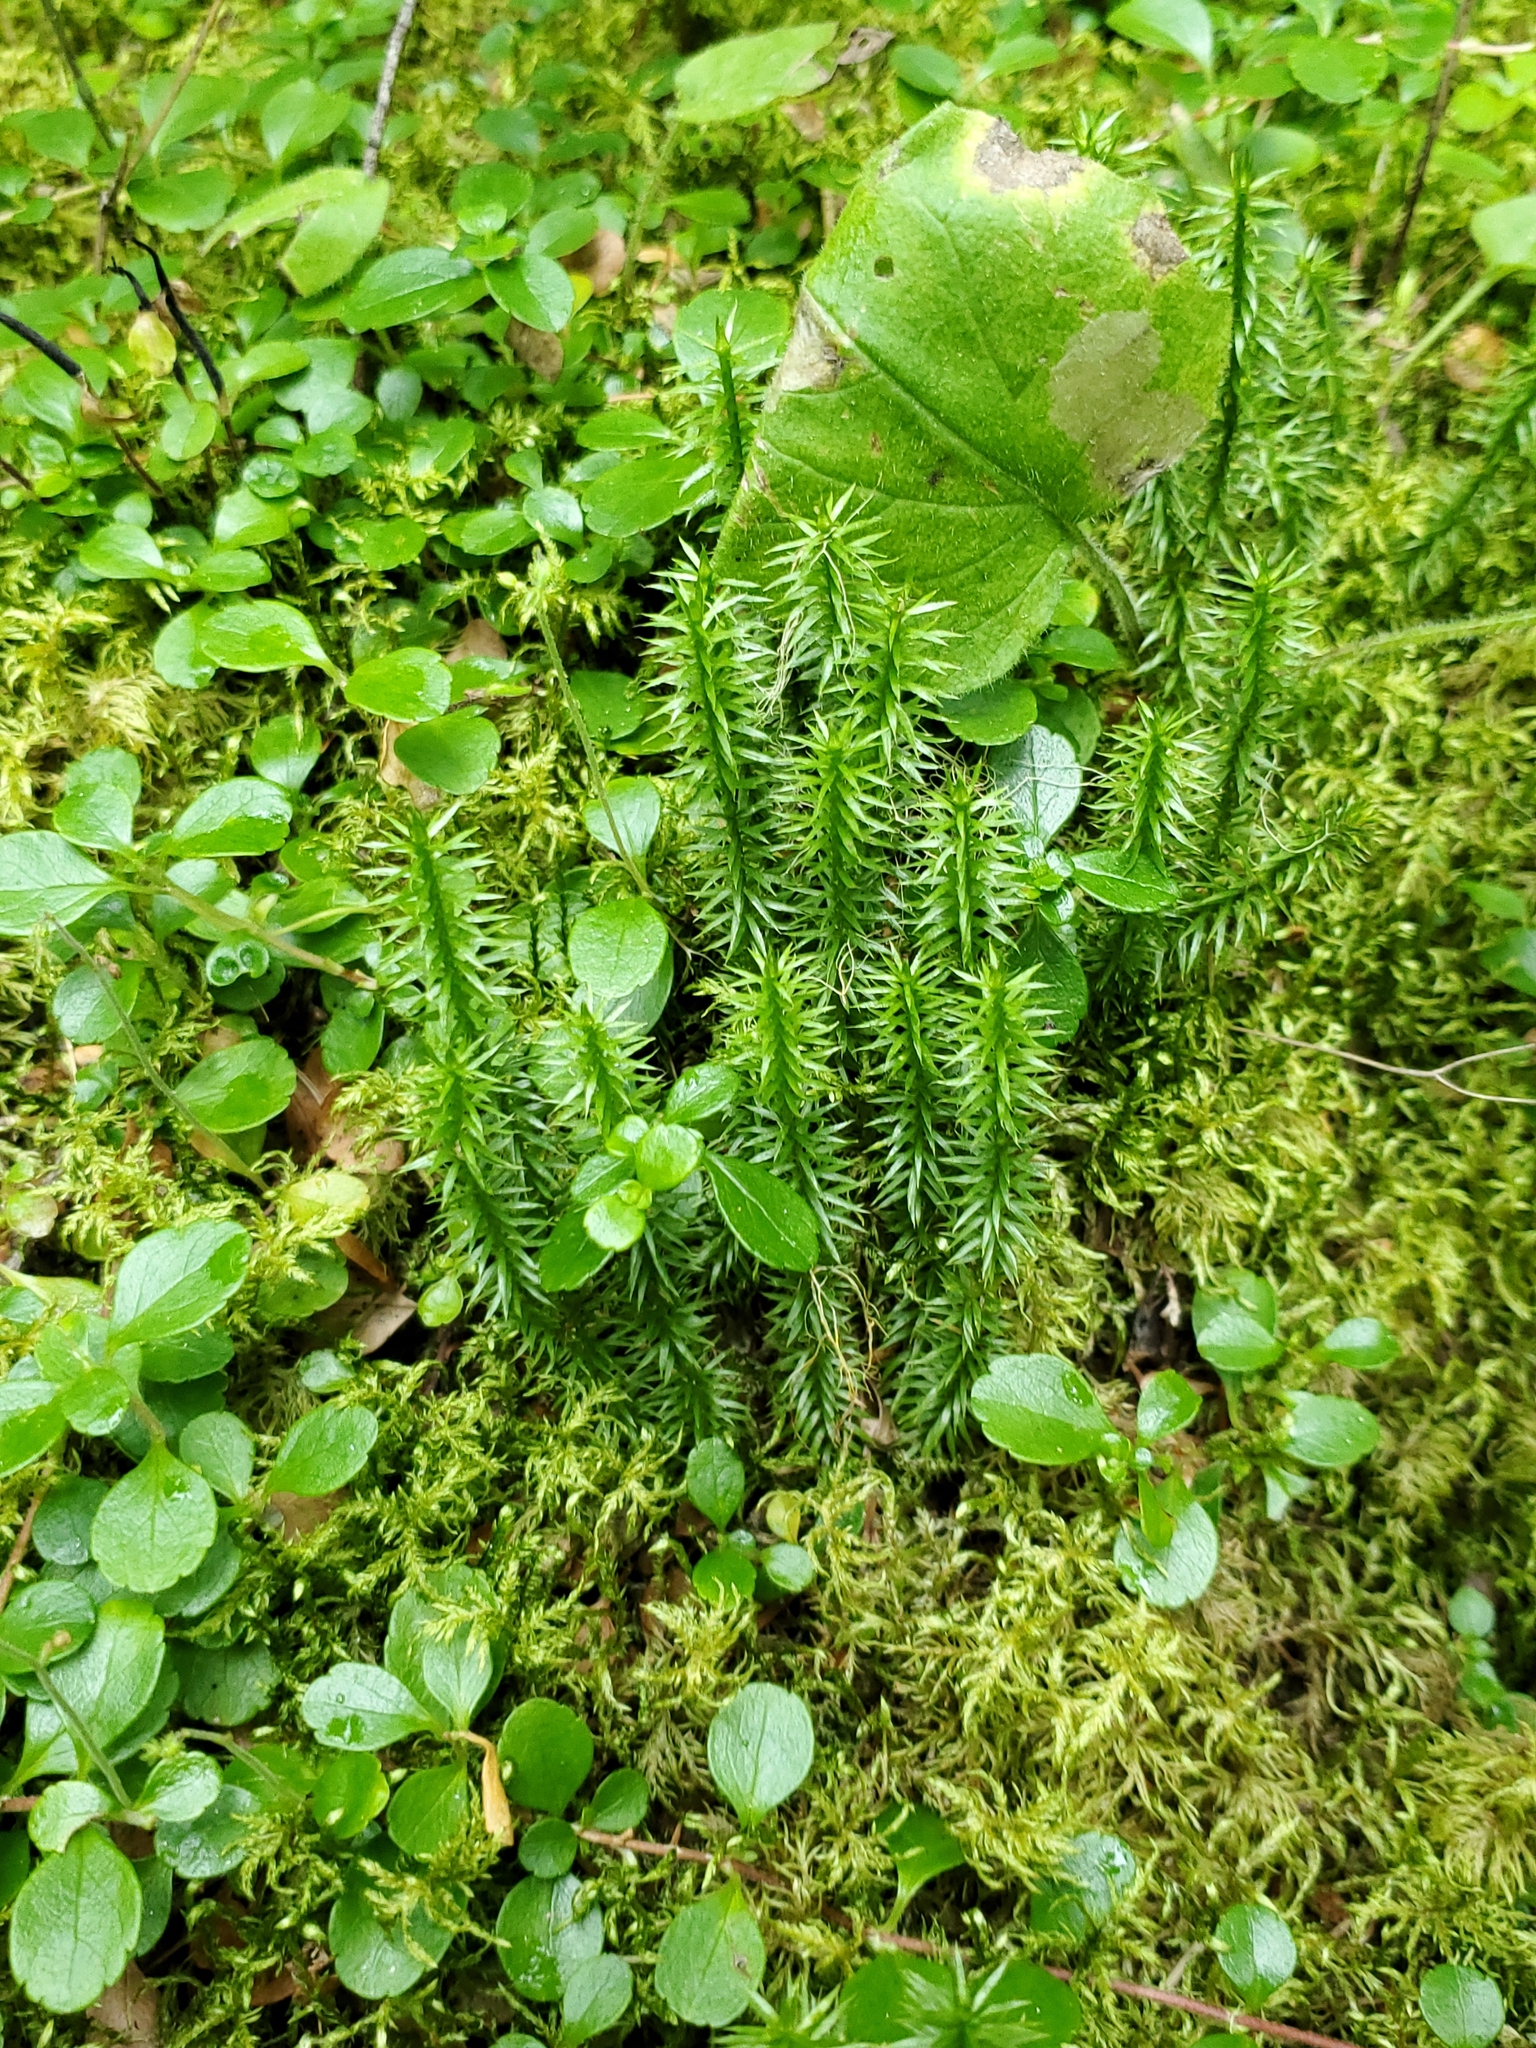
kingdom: Plantae
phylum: Tracheophyta
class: Lycopodiopsida
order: Lycopodiales
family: Lycopodiaceae
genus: Spinulum
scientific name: Spinulum annotinum
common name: Interrupted club-moss
